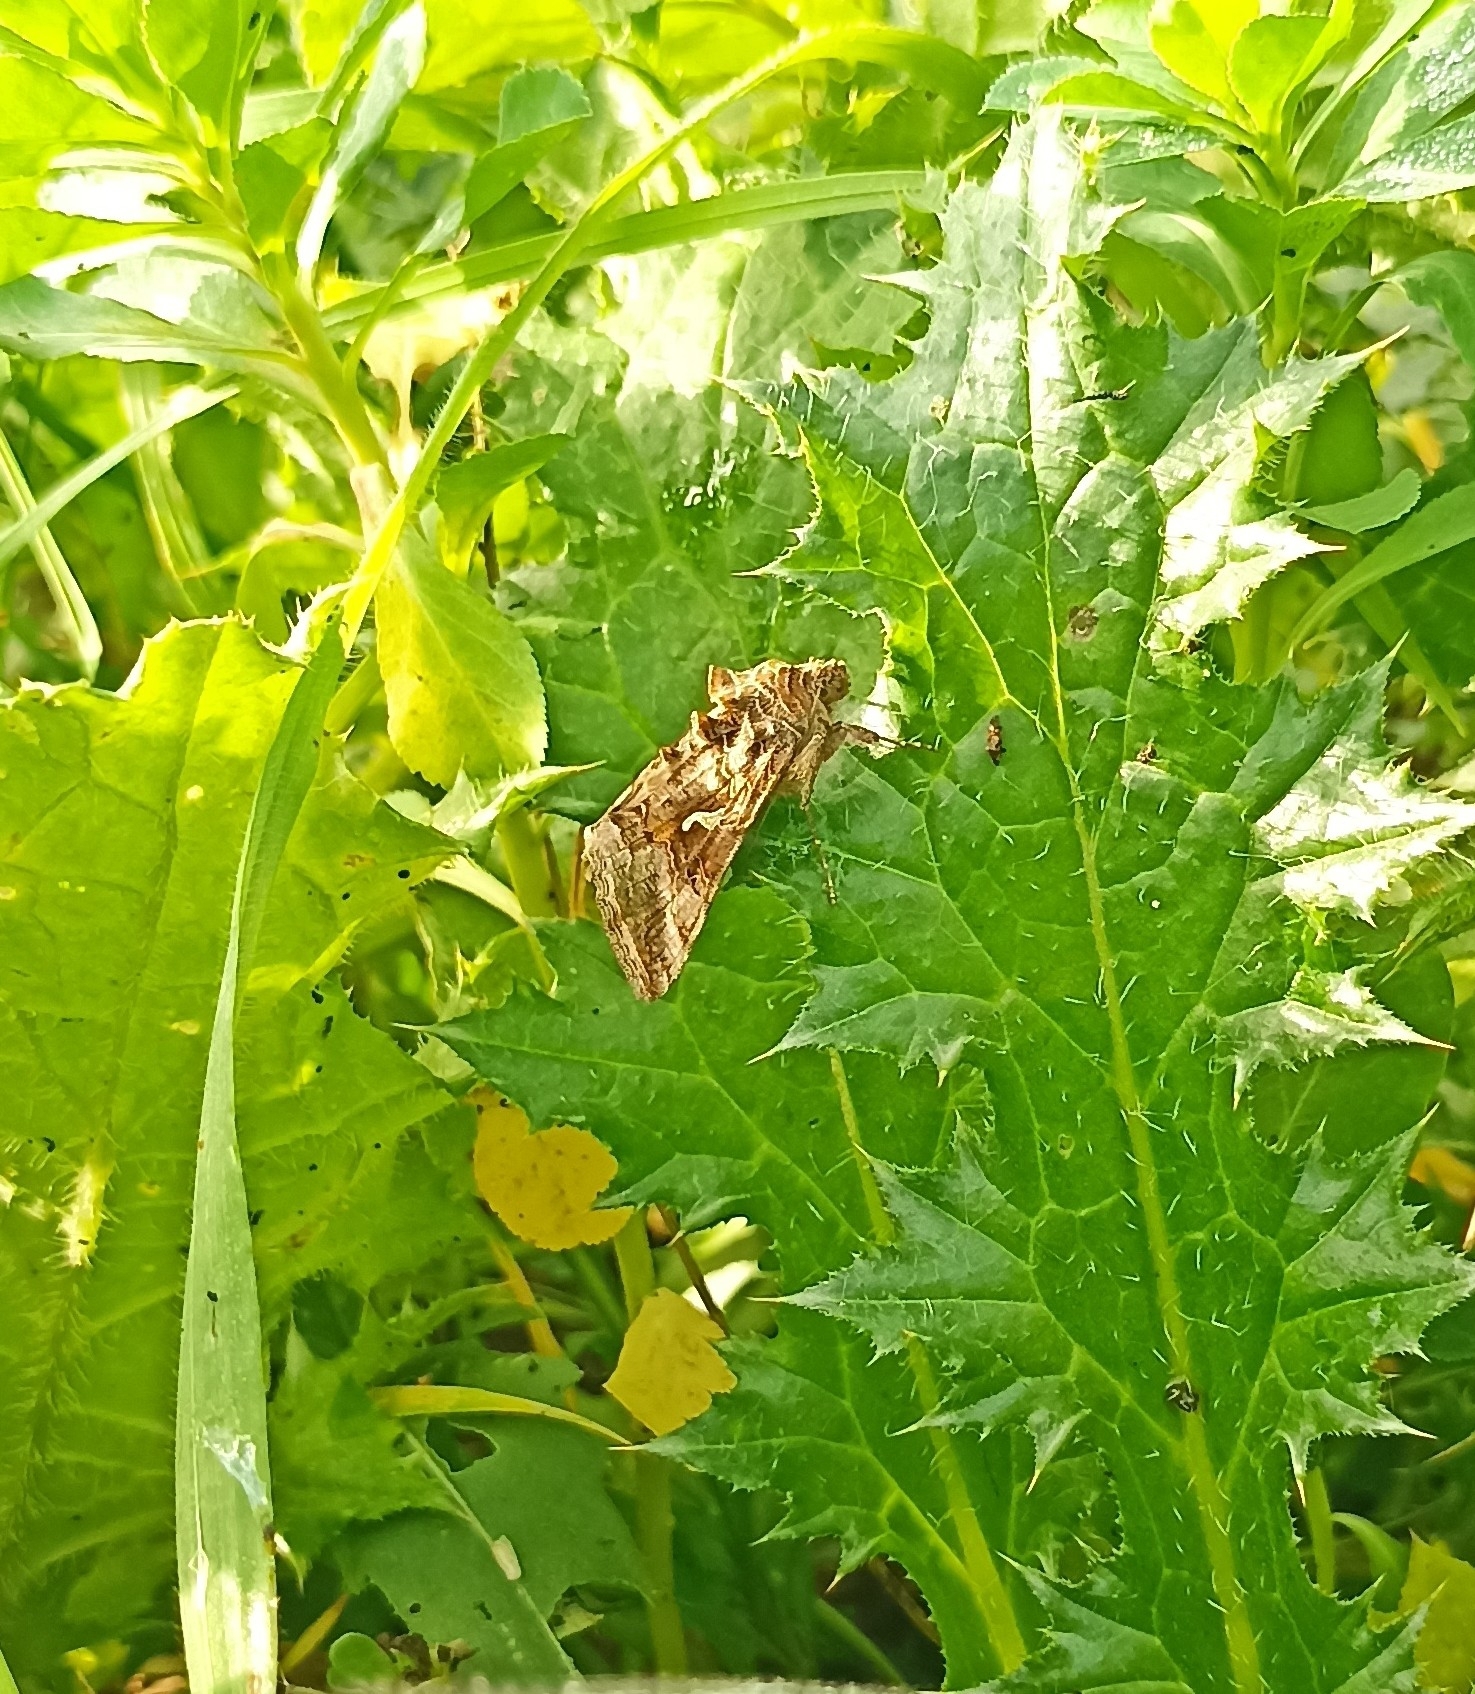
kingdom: Animalia
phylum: Arthropoda
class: Insecta
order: Lepidoptera
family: Noctuidae
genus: Autographa
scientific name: Autographa gamma
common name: Silver y
